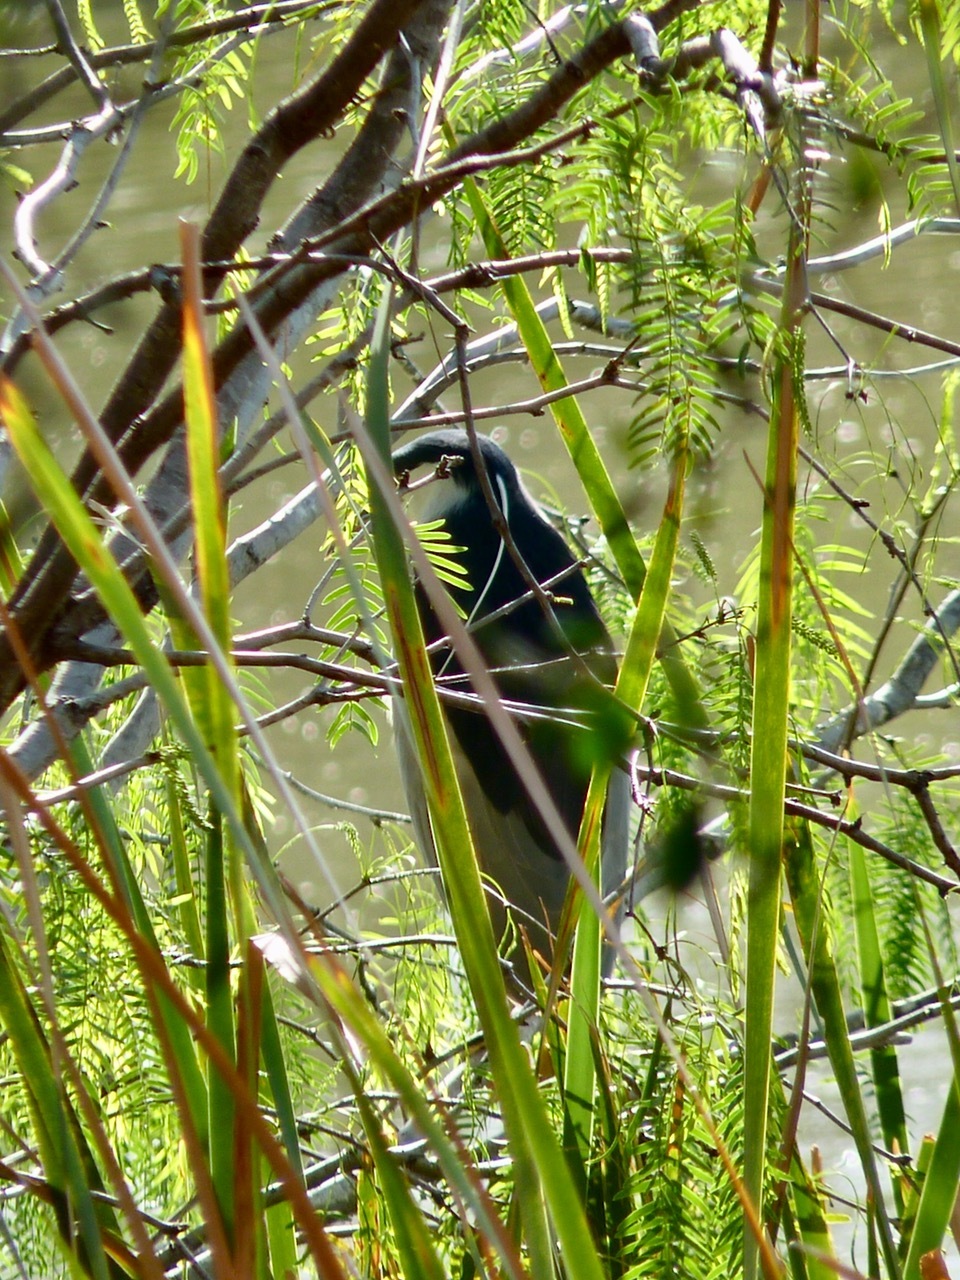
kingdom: Animalia
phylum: Chordata
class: Aves
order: Pelecaniformes
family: Ardeidae
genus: Nycticorax
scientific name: Nycticorax nycticorax
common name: Black-crowned night heron
